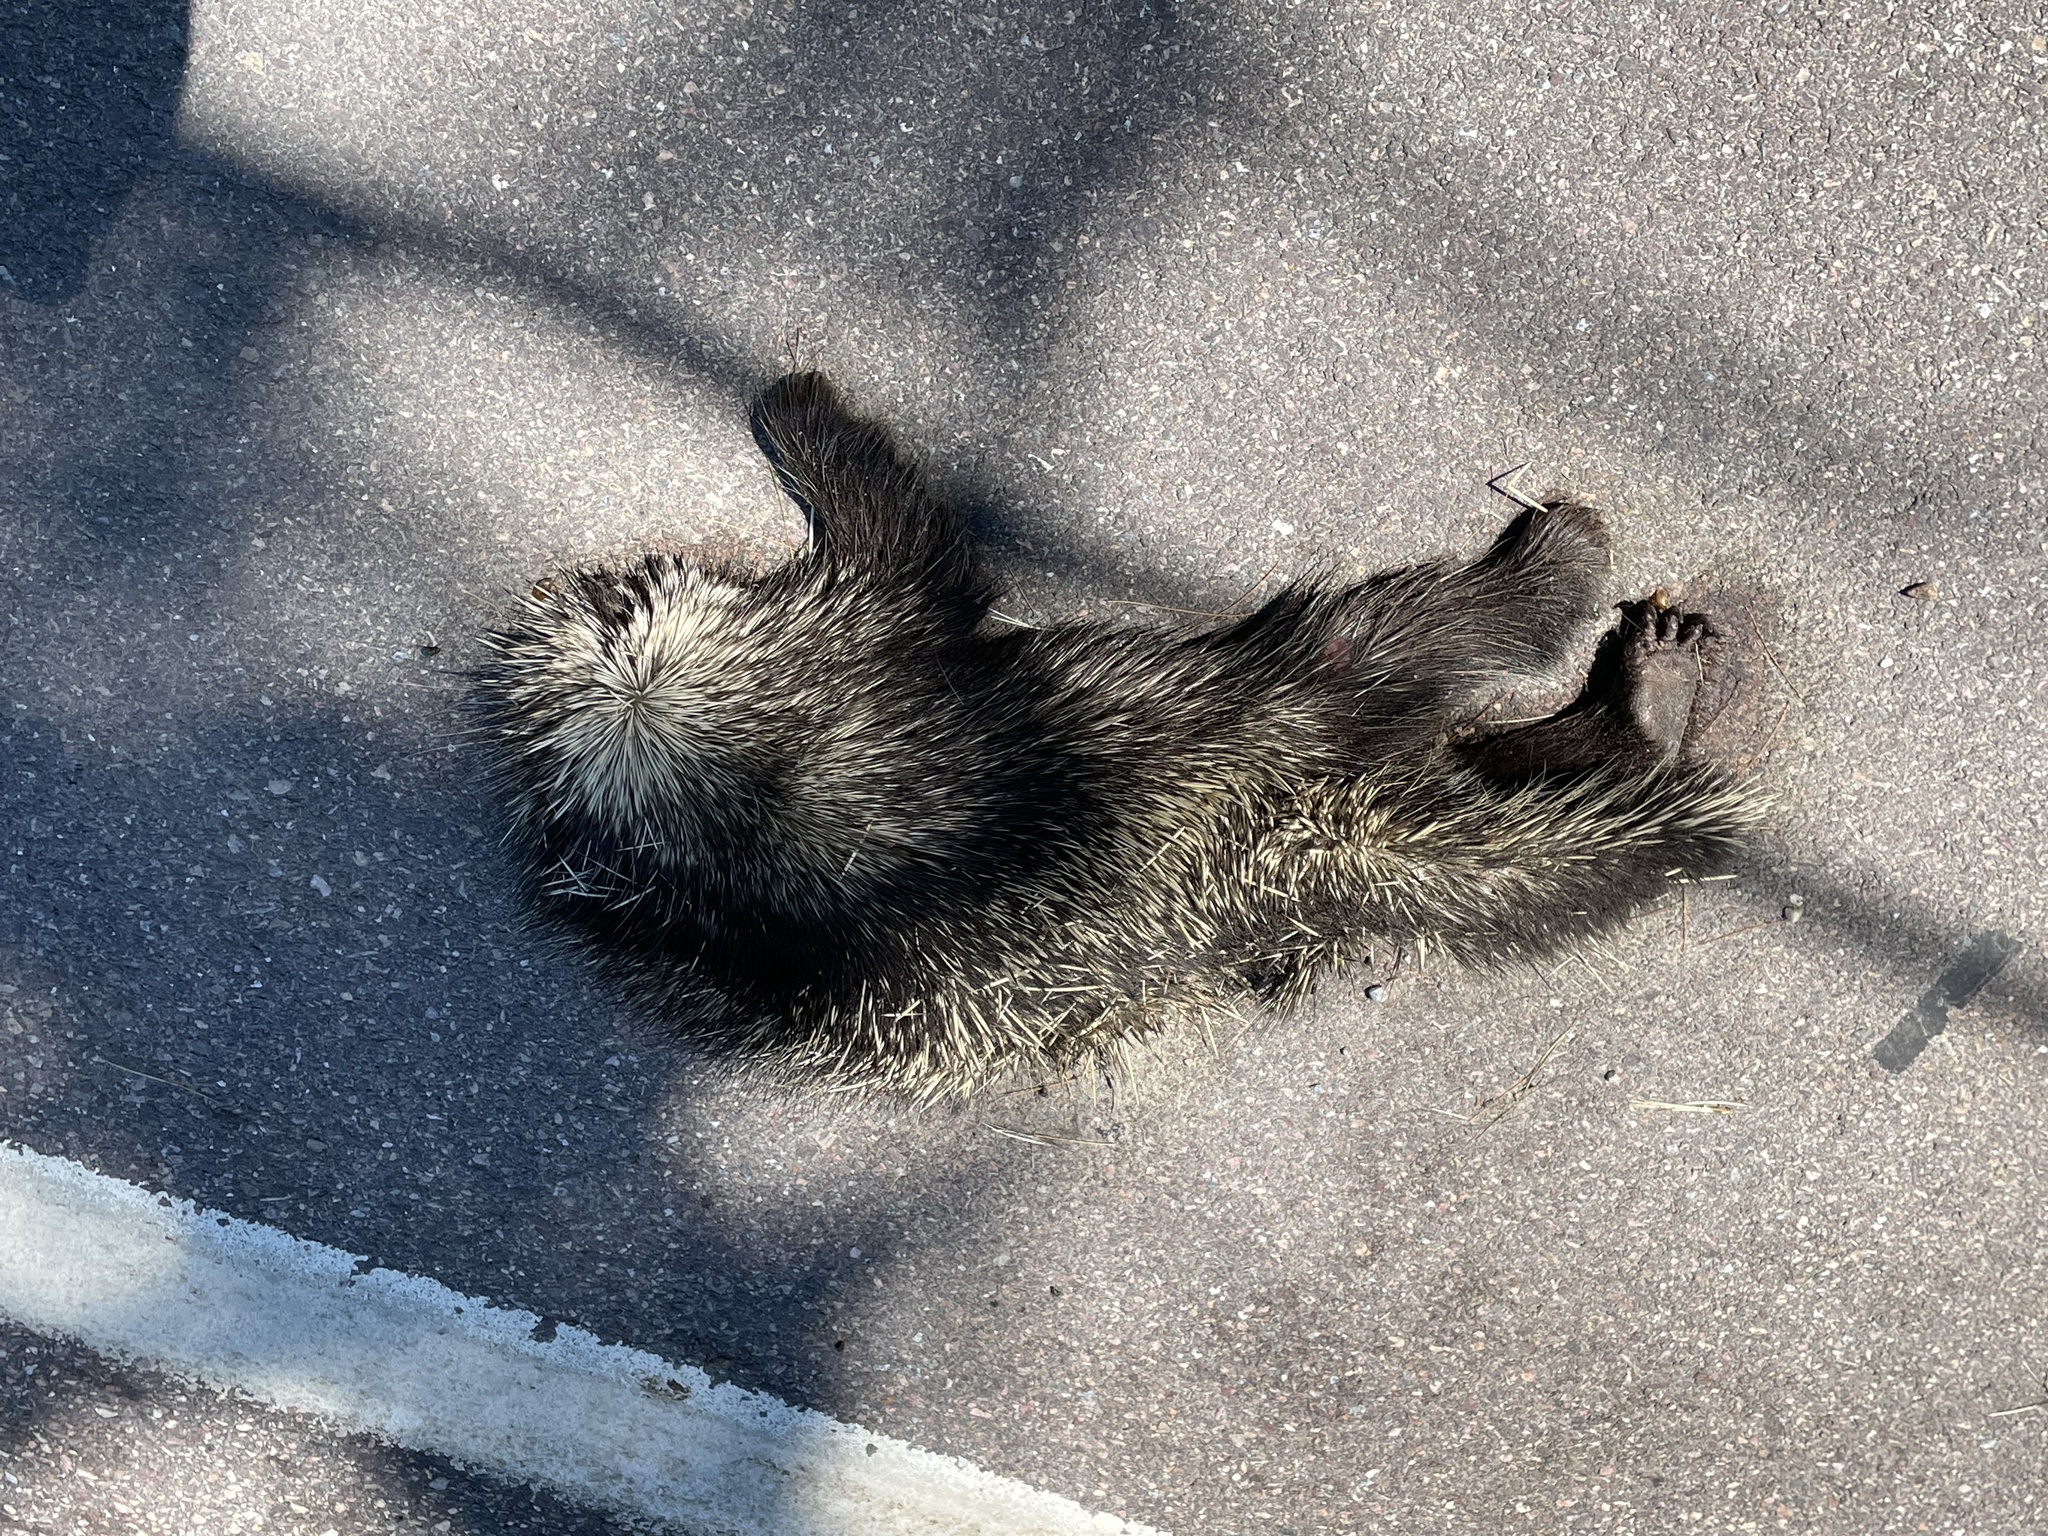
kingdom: Animalia
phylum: Chordata
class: Mammalia
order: Rodentia
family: Erethizontidae
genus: Erethizon
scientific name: Erethizon dorsatus
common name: North american porcupine
